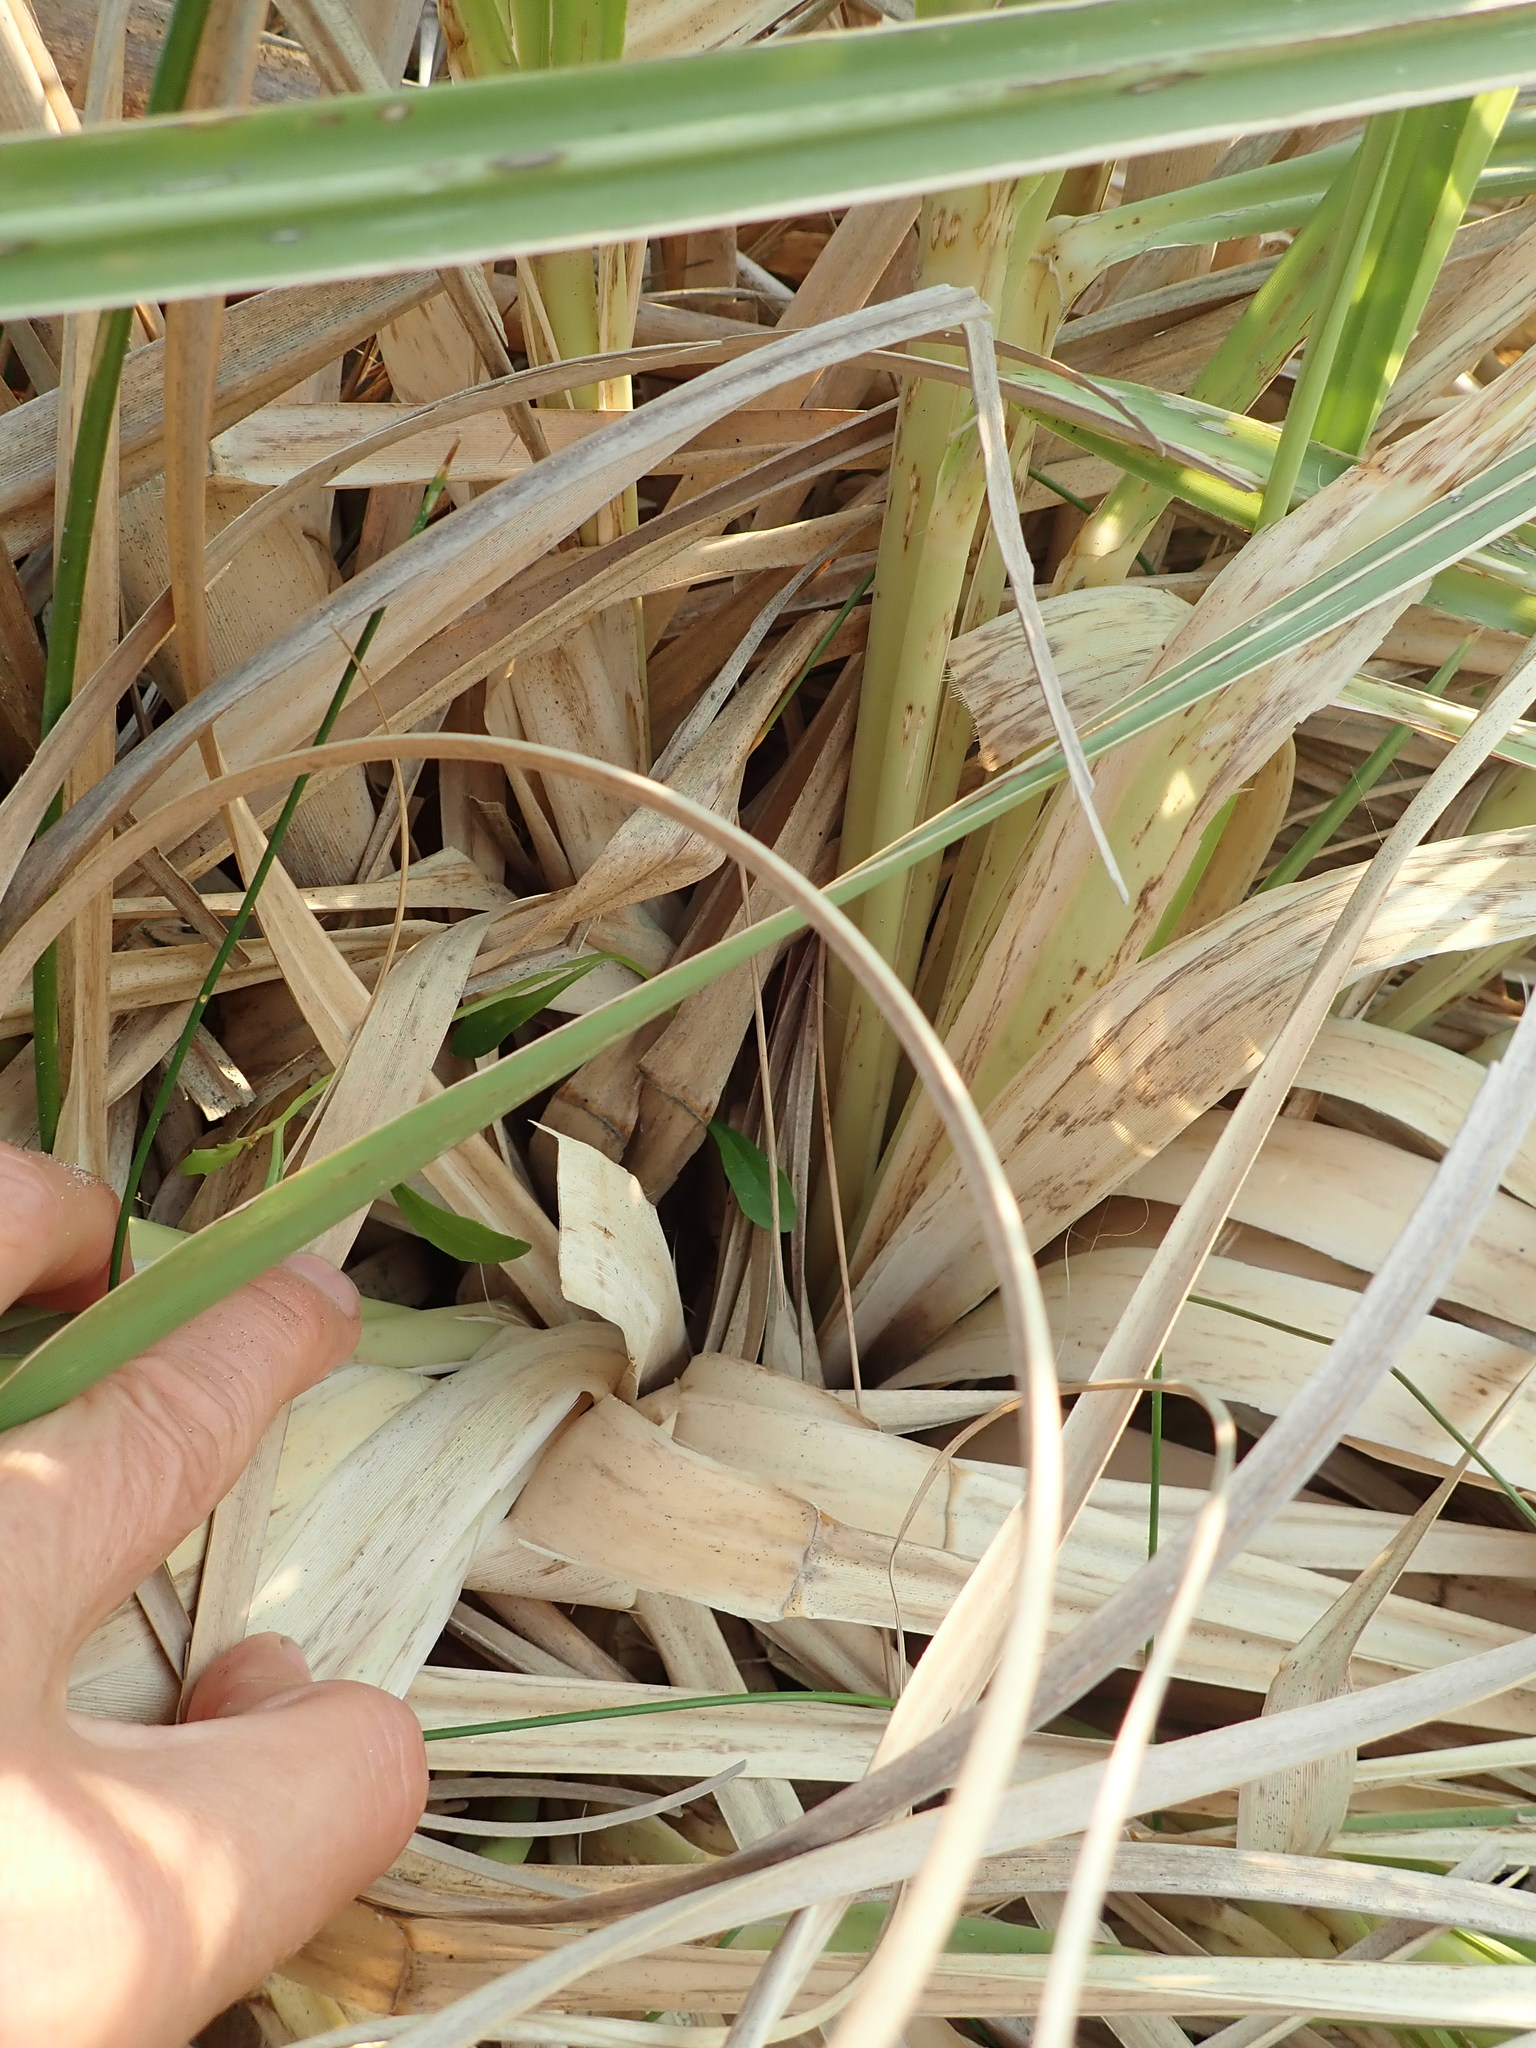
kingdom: Plantae
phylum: Tracheophyta
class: Liliopsida
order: Poales
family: Poaceae
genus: Cortaderia
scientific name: Cortaderia selloana
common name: Uruguayan pampas grass
